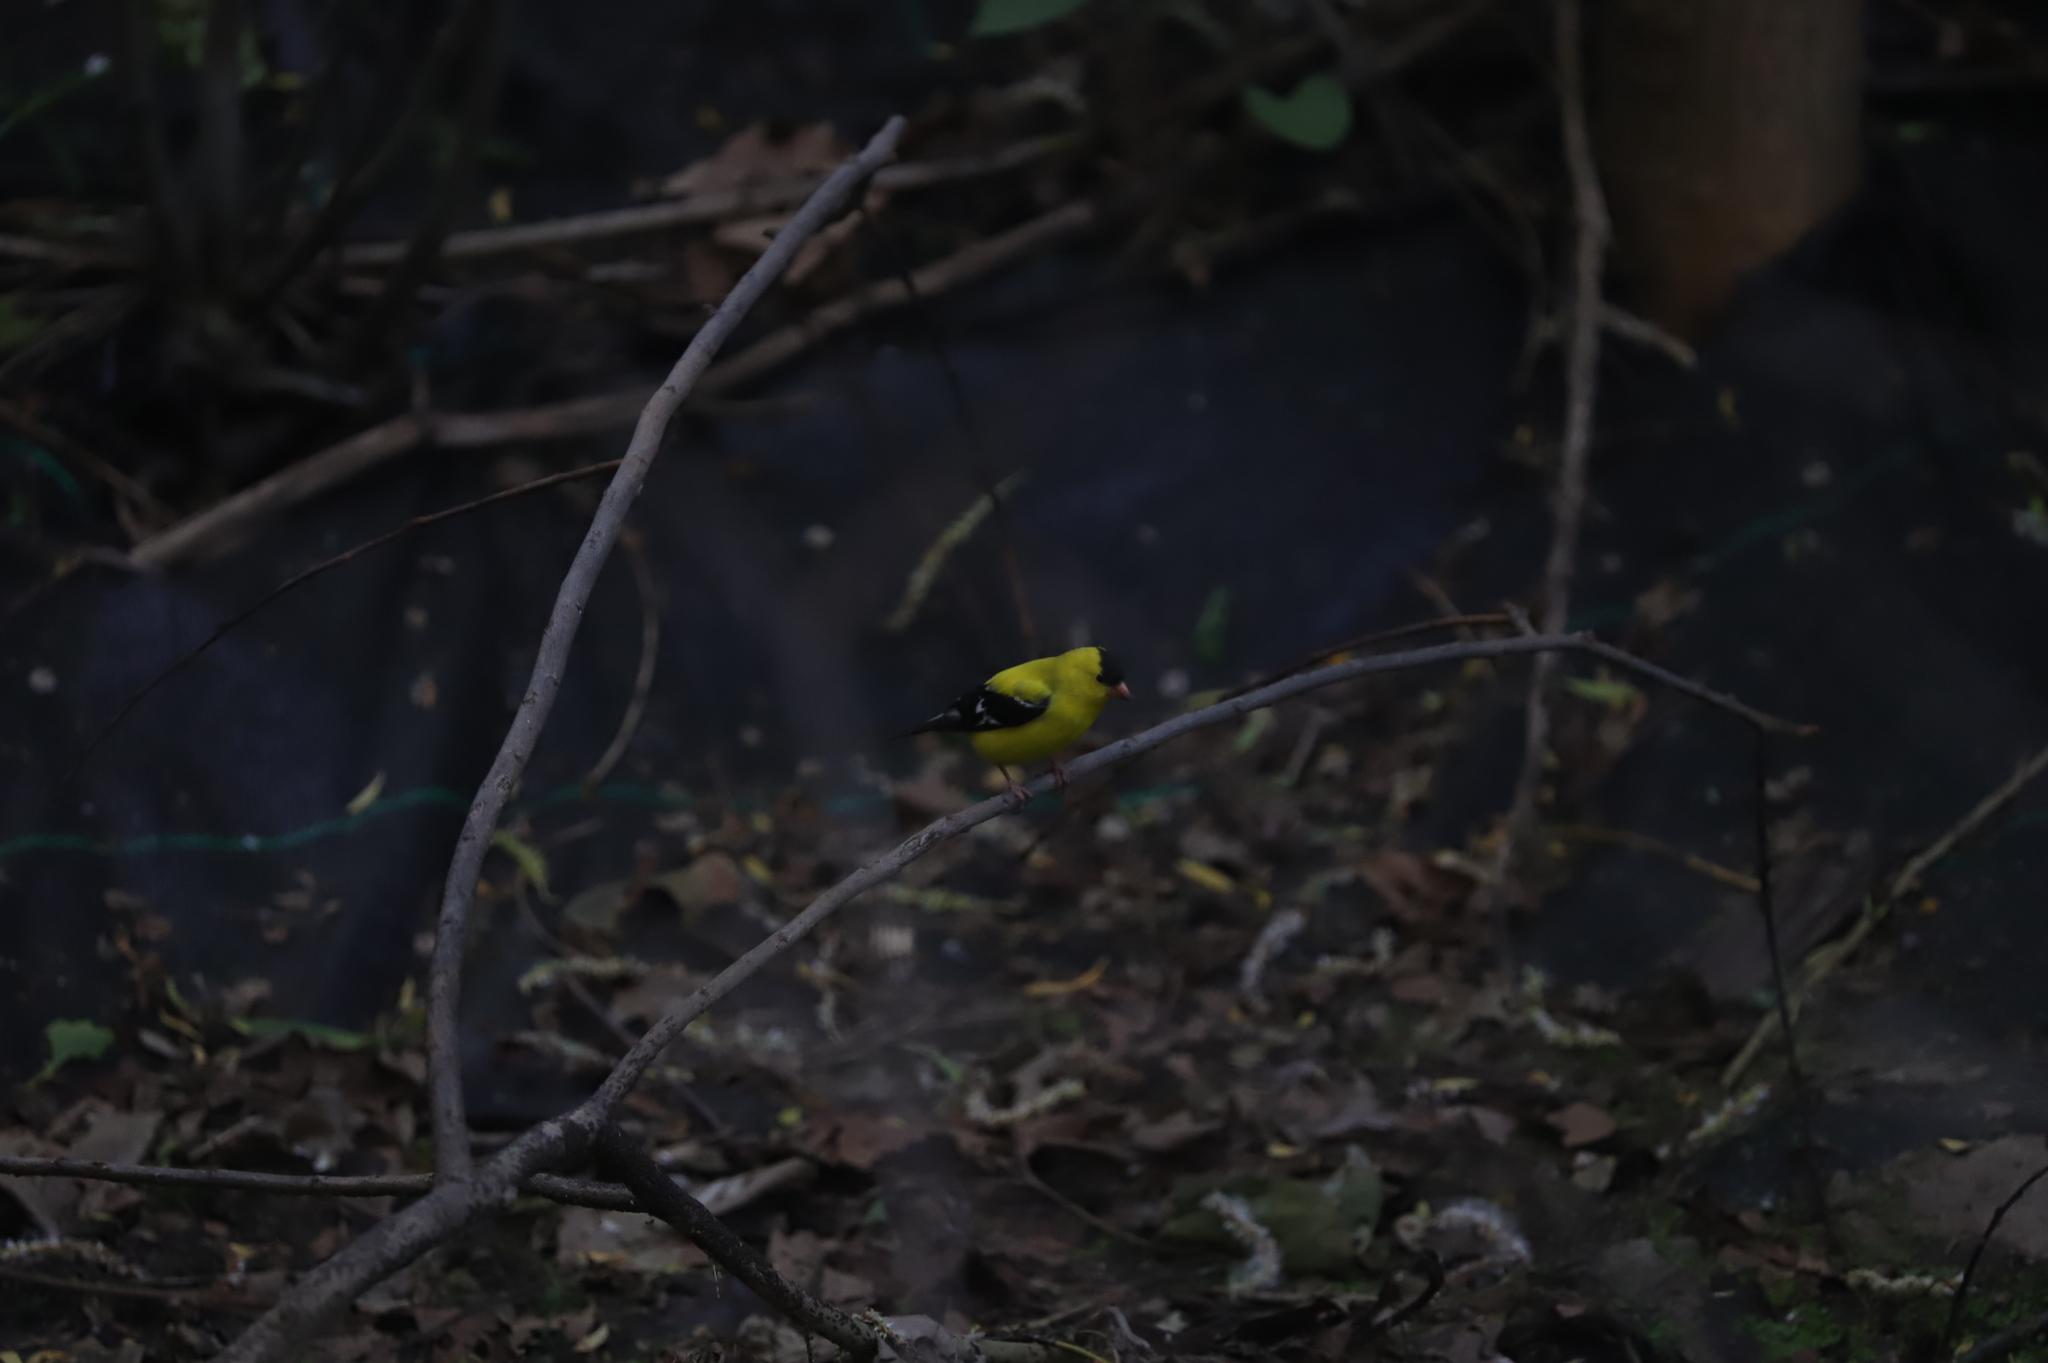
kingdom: Animalia
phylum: Chordata
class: Aves
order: Passeriformes
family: Fringillidae
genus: Spinus
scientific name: Spinus tristis
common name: American goldfinch
